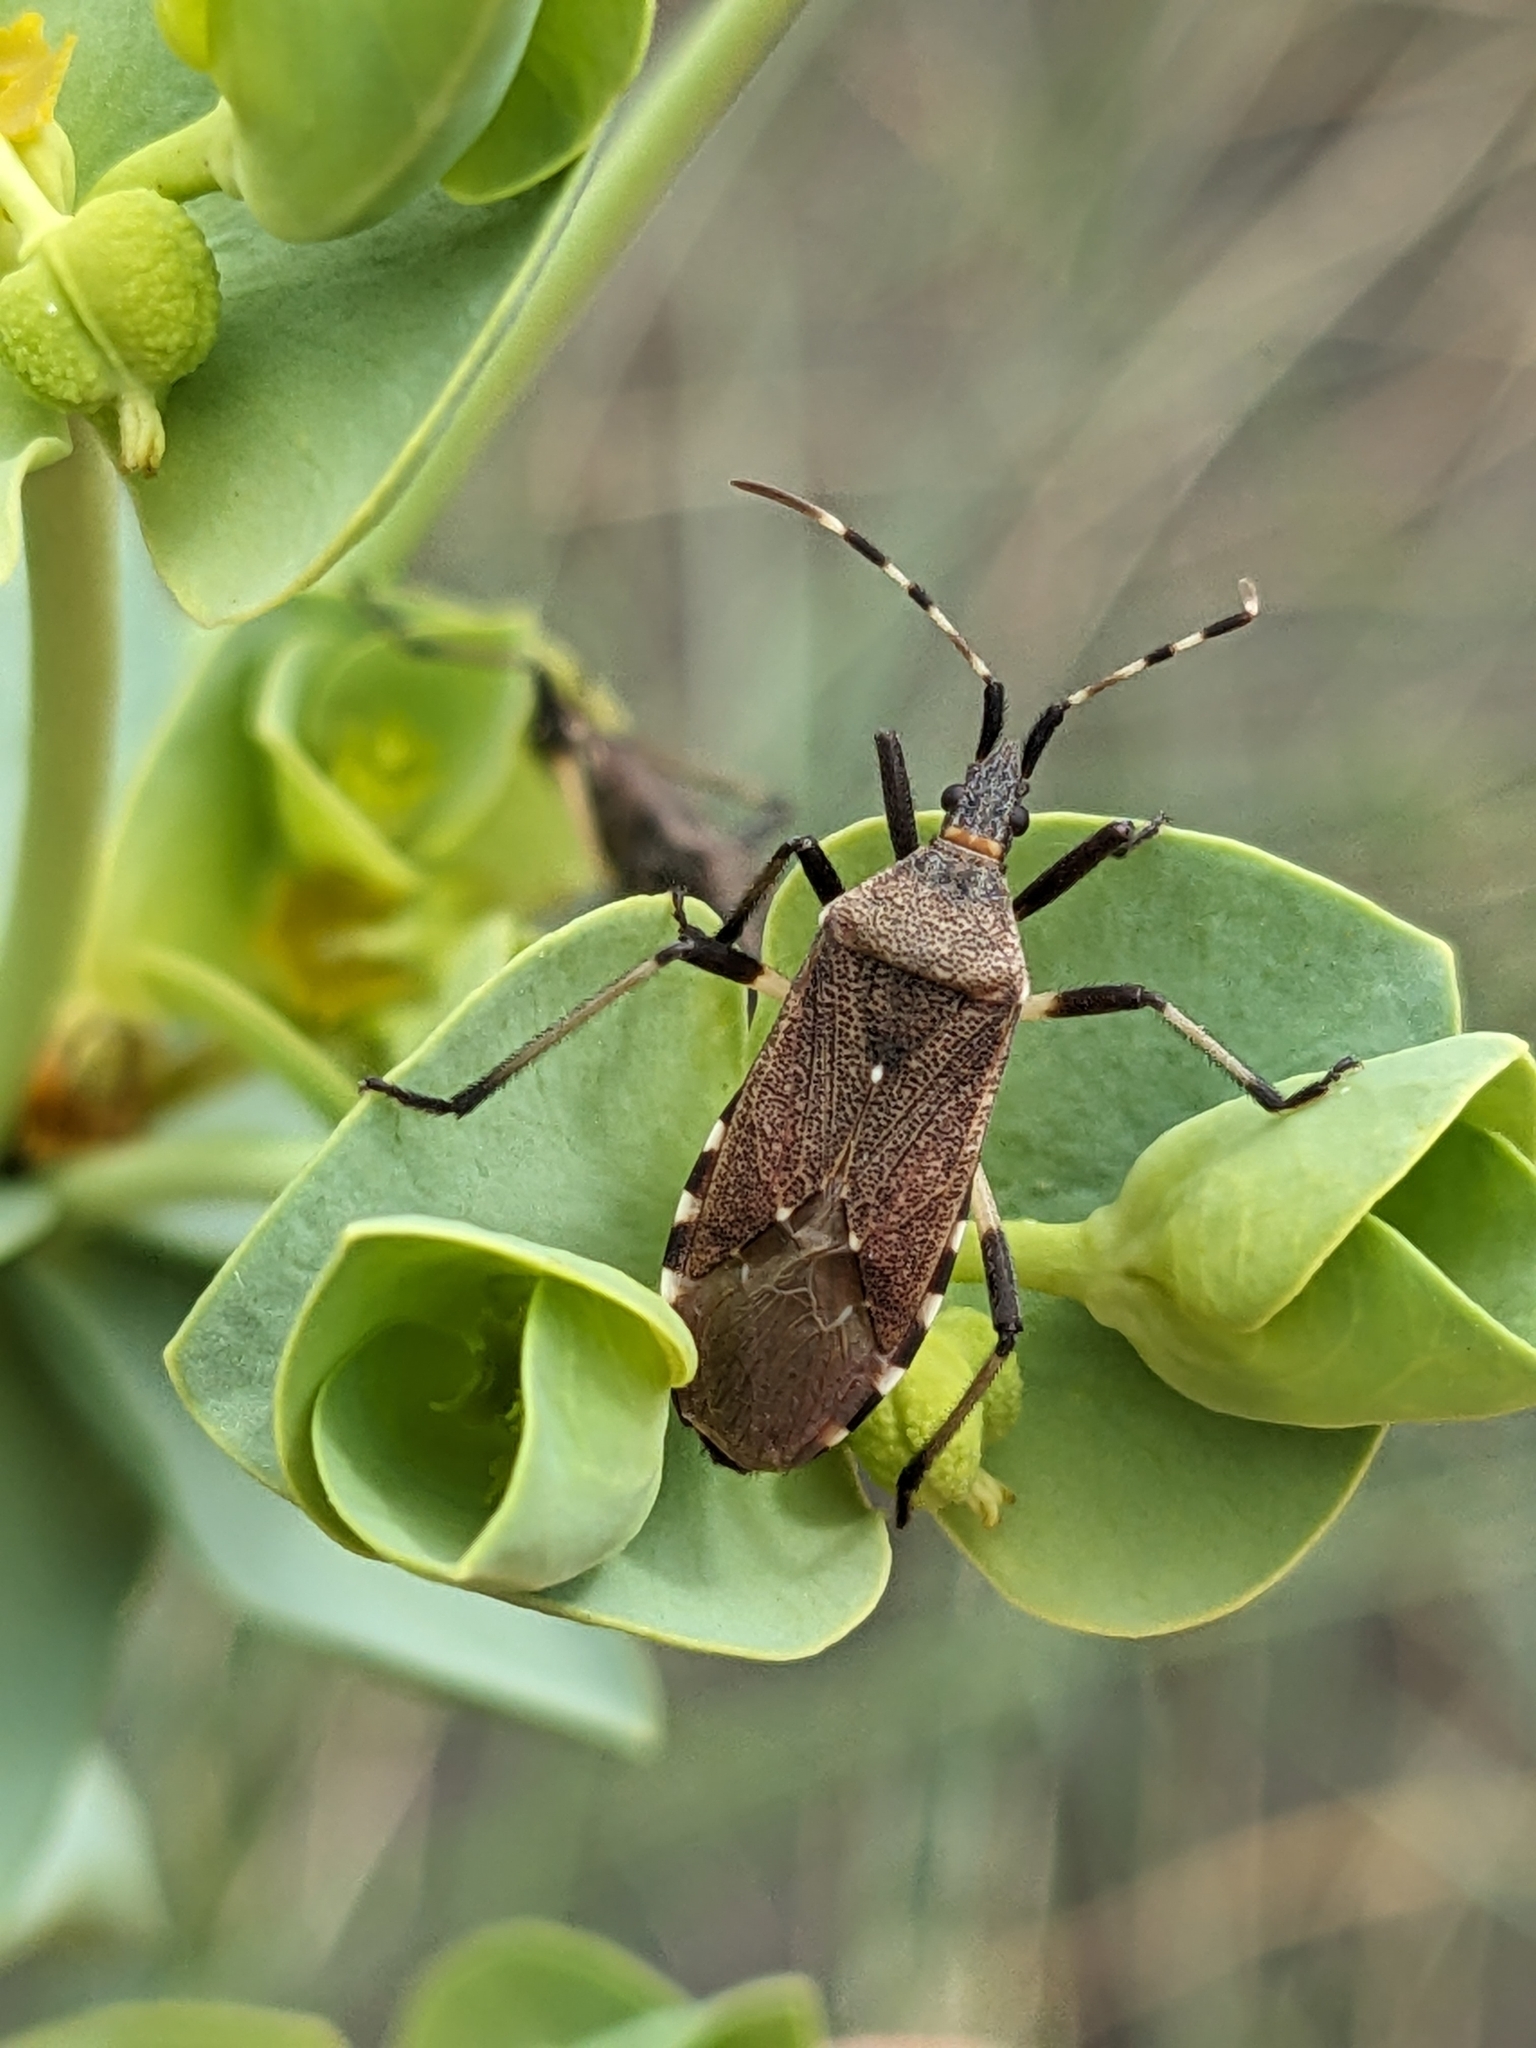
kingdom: Animalia
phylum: Arthropoda
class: Insecta
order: Hemiptera
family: Stenocephalidae
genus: Dicranocephalus
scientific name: Dicranocephalus agilis
